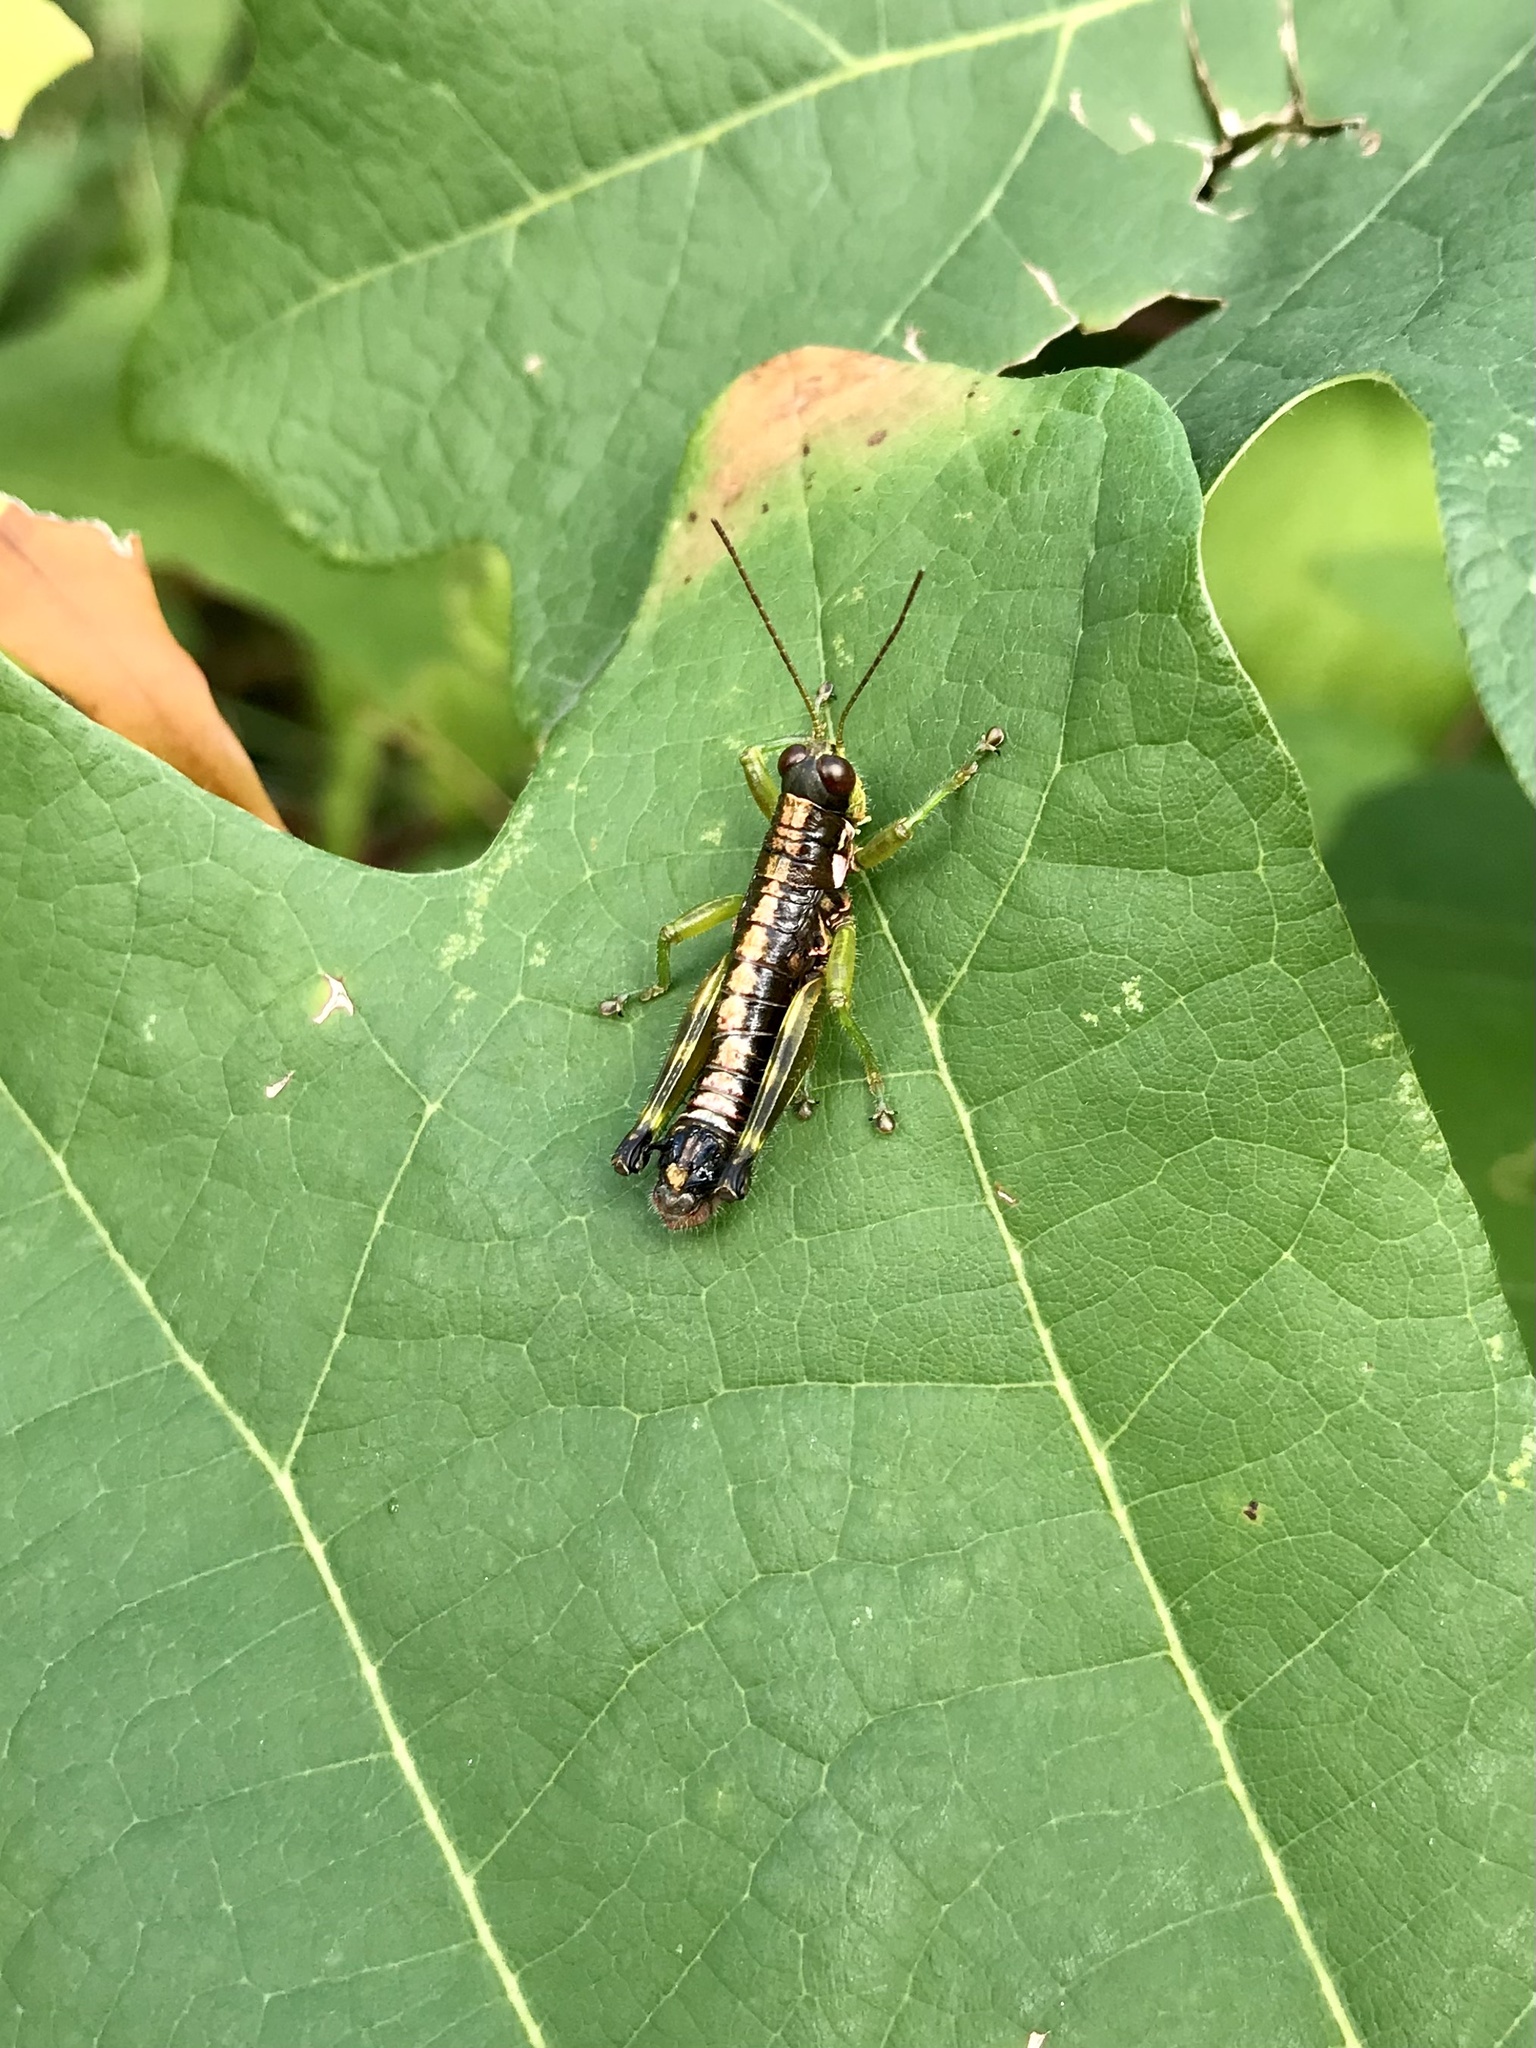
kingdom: Animalia
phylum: Arthropoda
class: Insecta
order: Orthoptera
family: Acrididae
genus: Booneacris
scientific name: Booneacris glacialis
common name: Wingless mountain grasshopper
